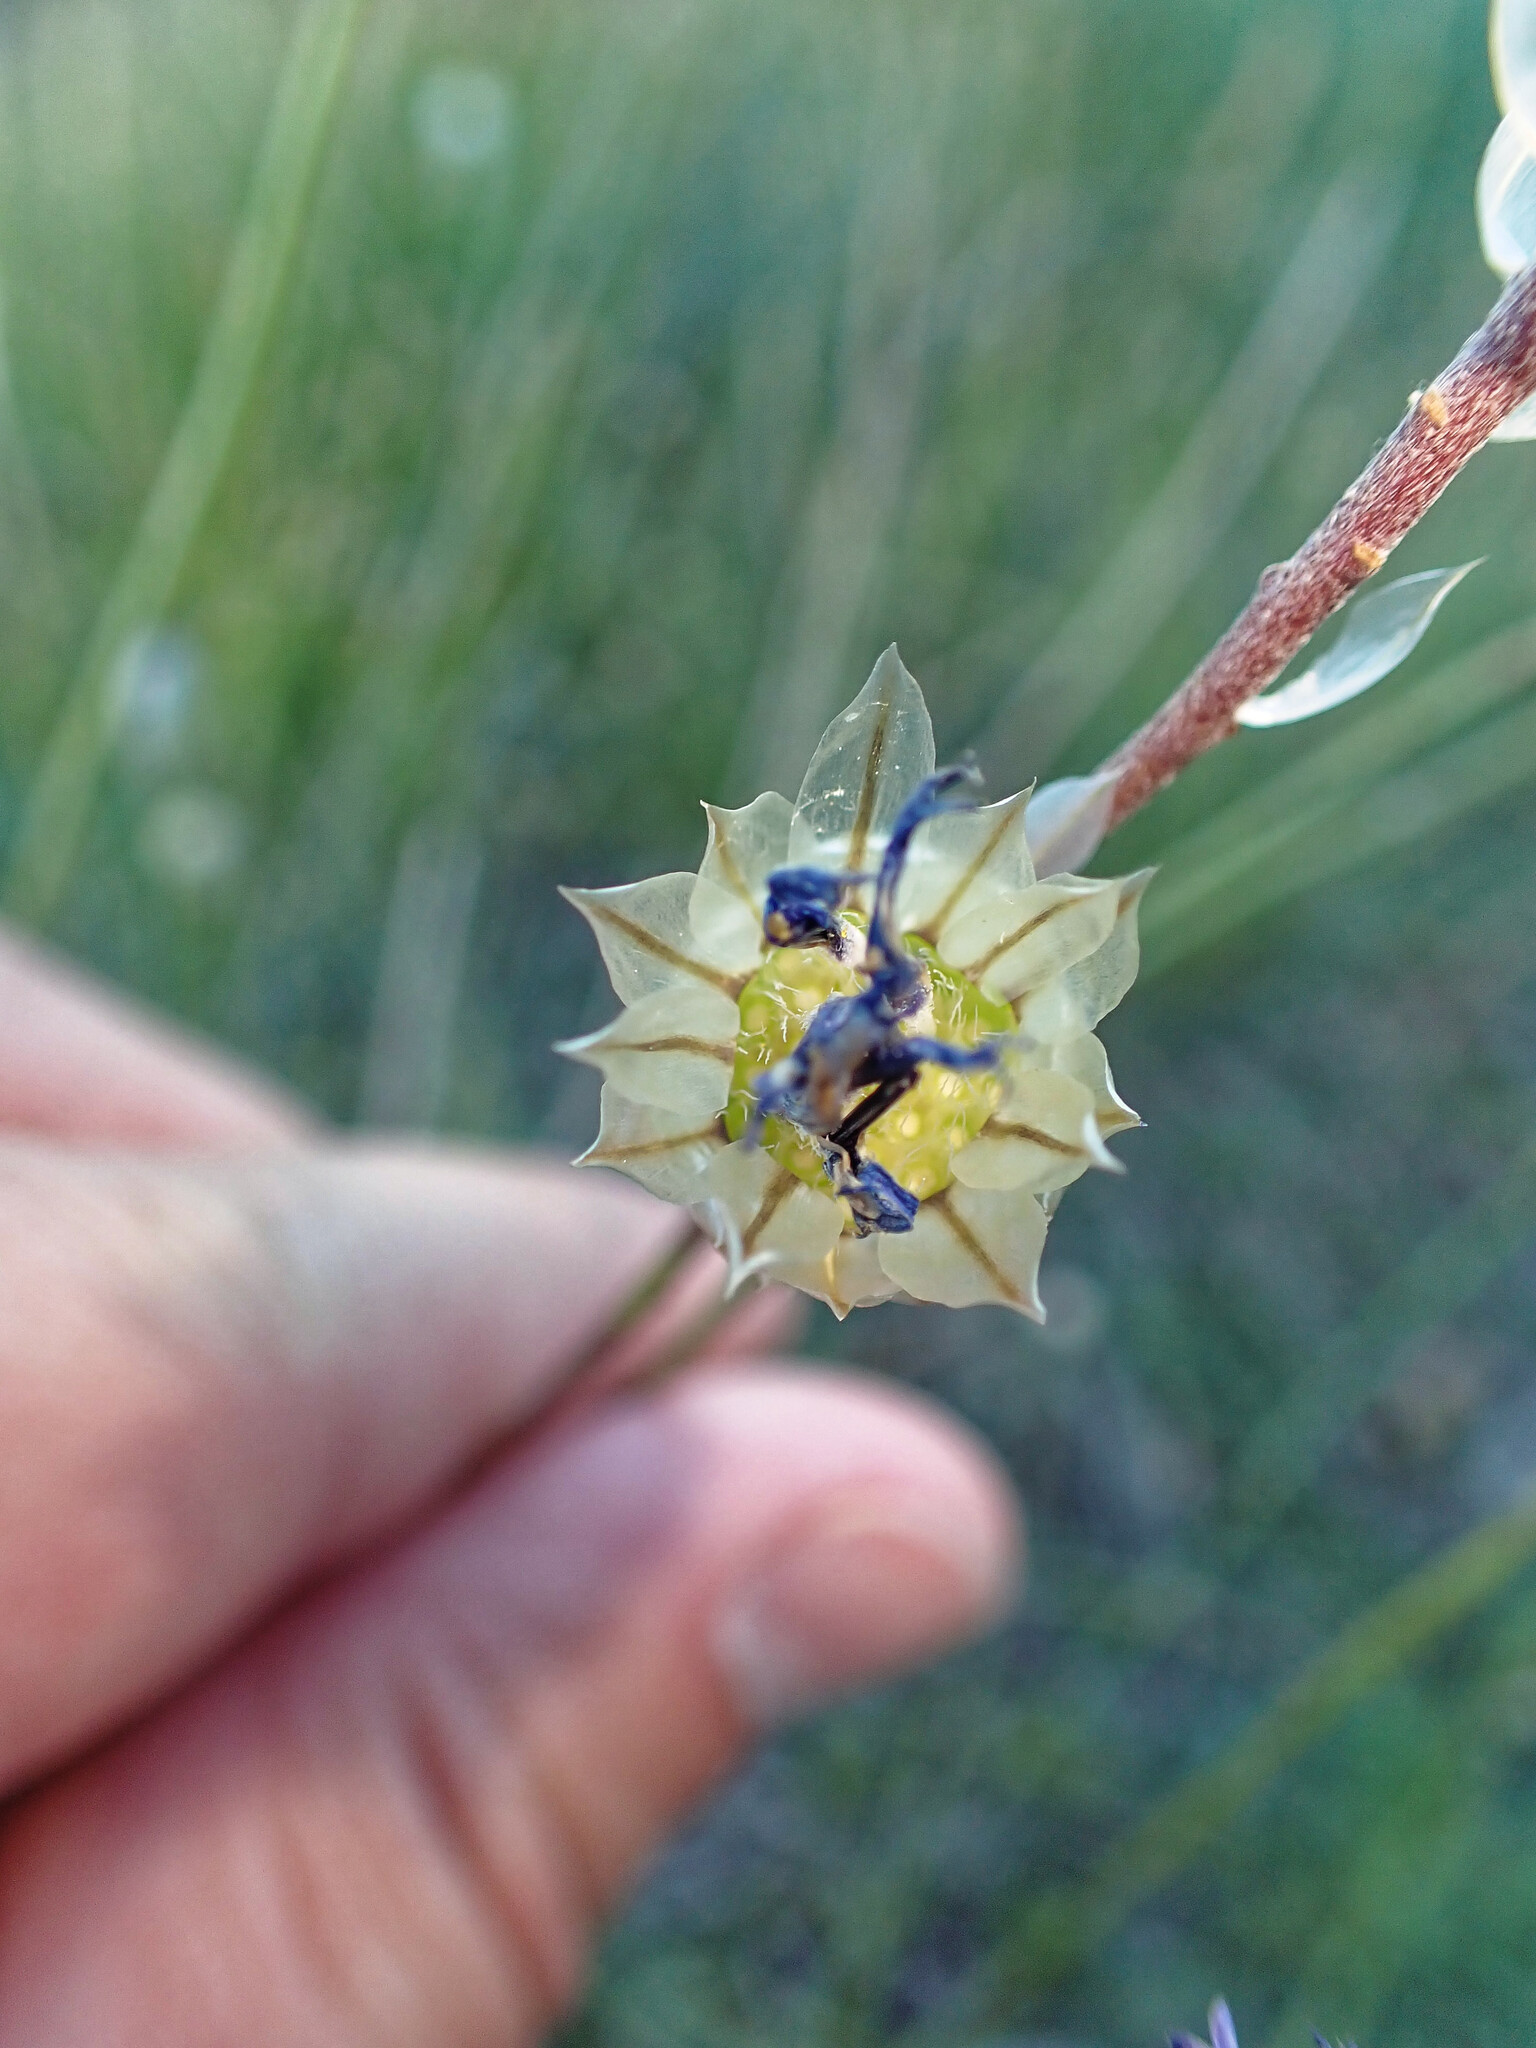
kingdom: Plantae
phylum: Tracheophyta
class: Magnoliopsida
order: Asterales
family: Asteraceae
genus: Catananche
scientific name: Catananche caerulea
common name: Blue cupidone
